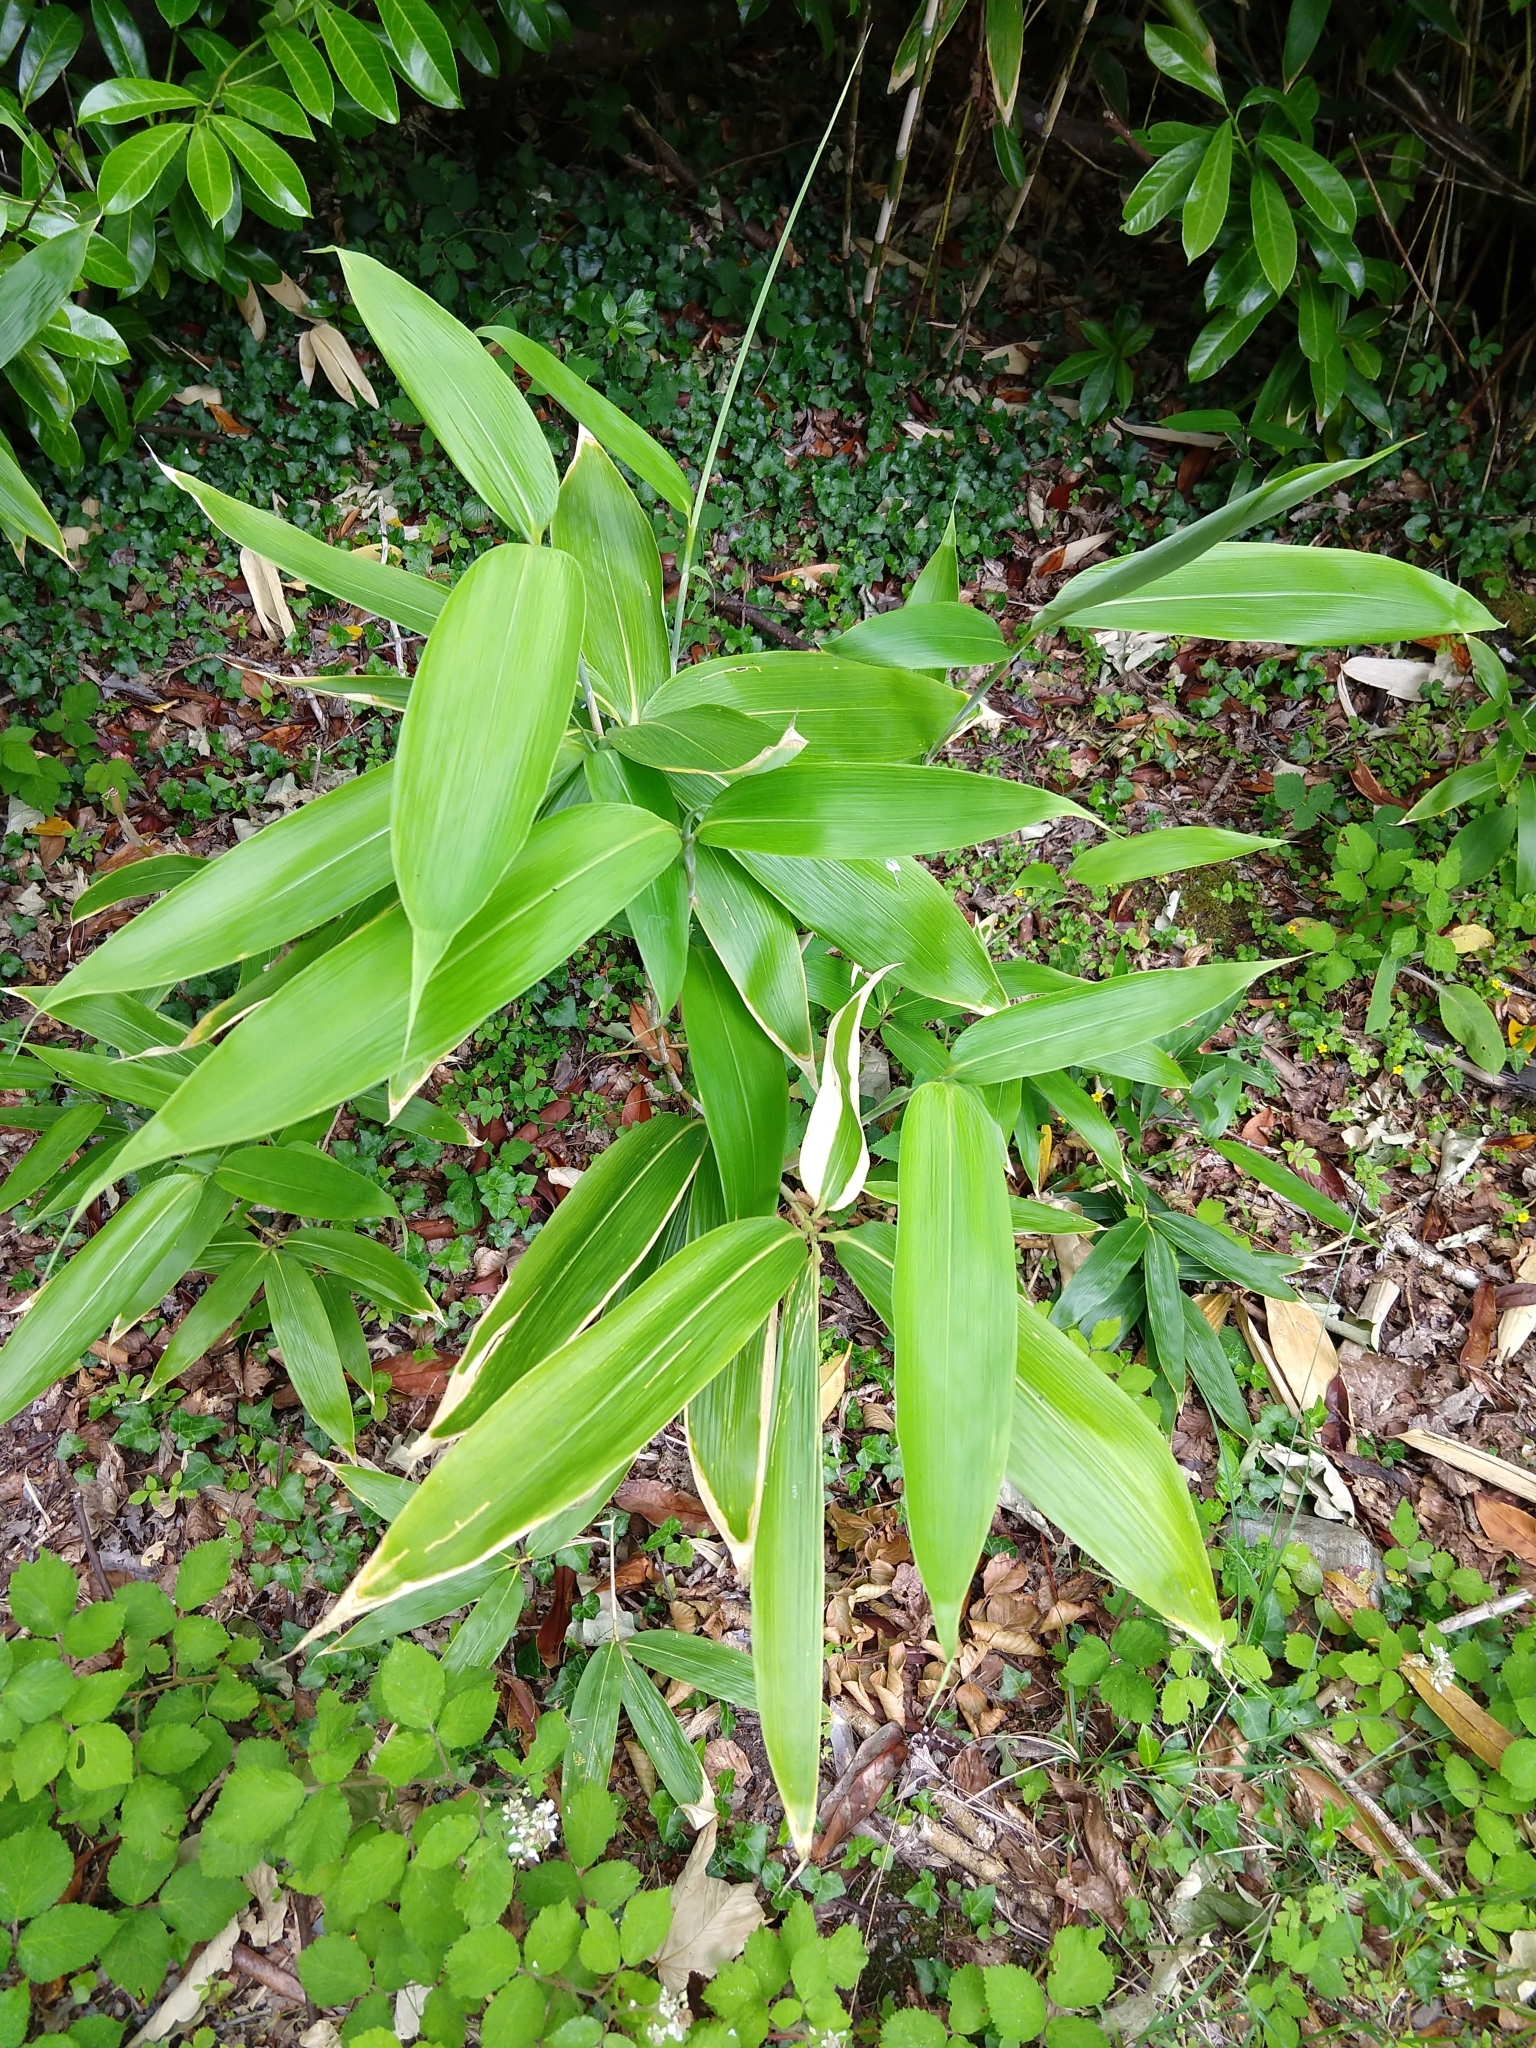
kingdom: Plantae
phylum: Tracheophyta
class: Liliopsida
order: Poales
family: Poaceae
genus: Sasa
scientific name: Sasa palmata
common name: Broad-leaved bamboo
